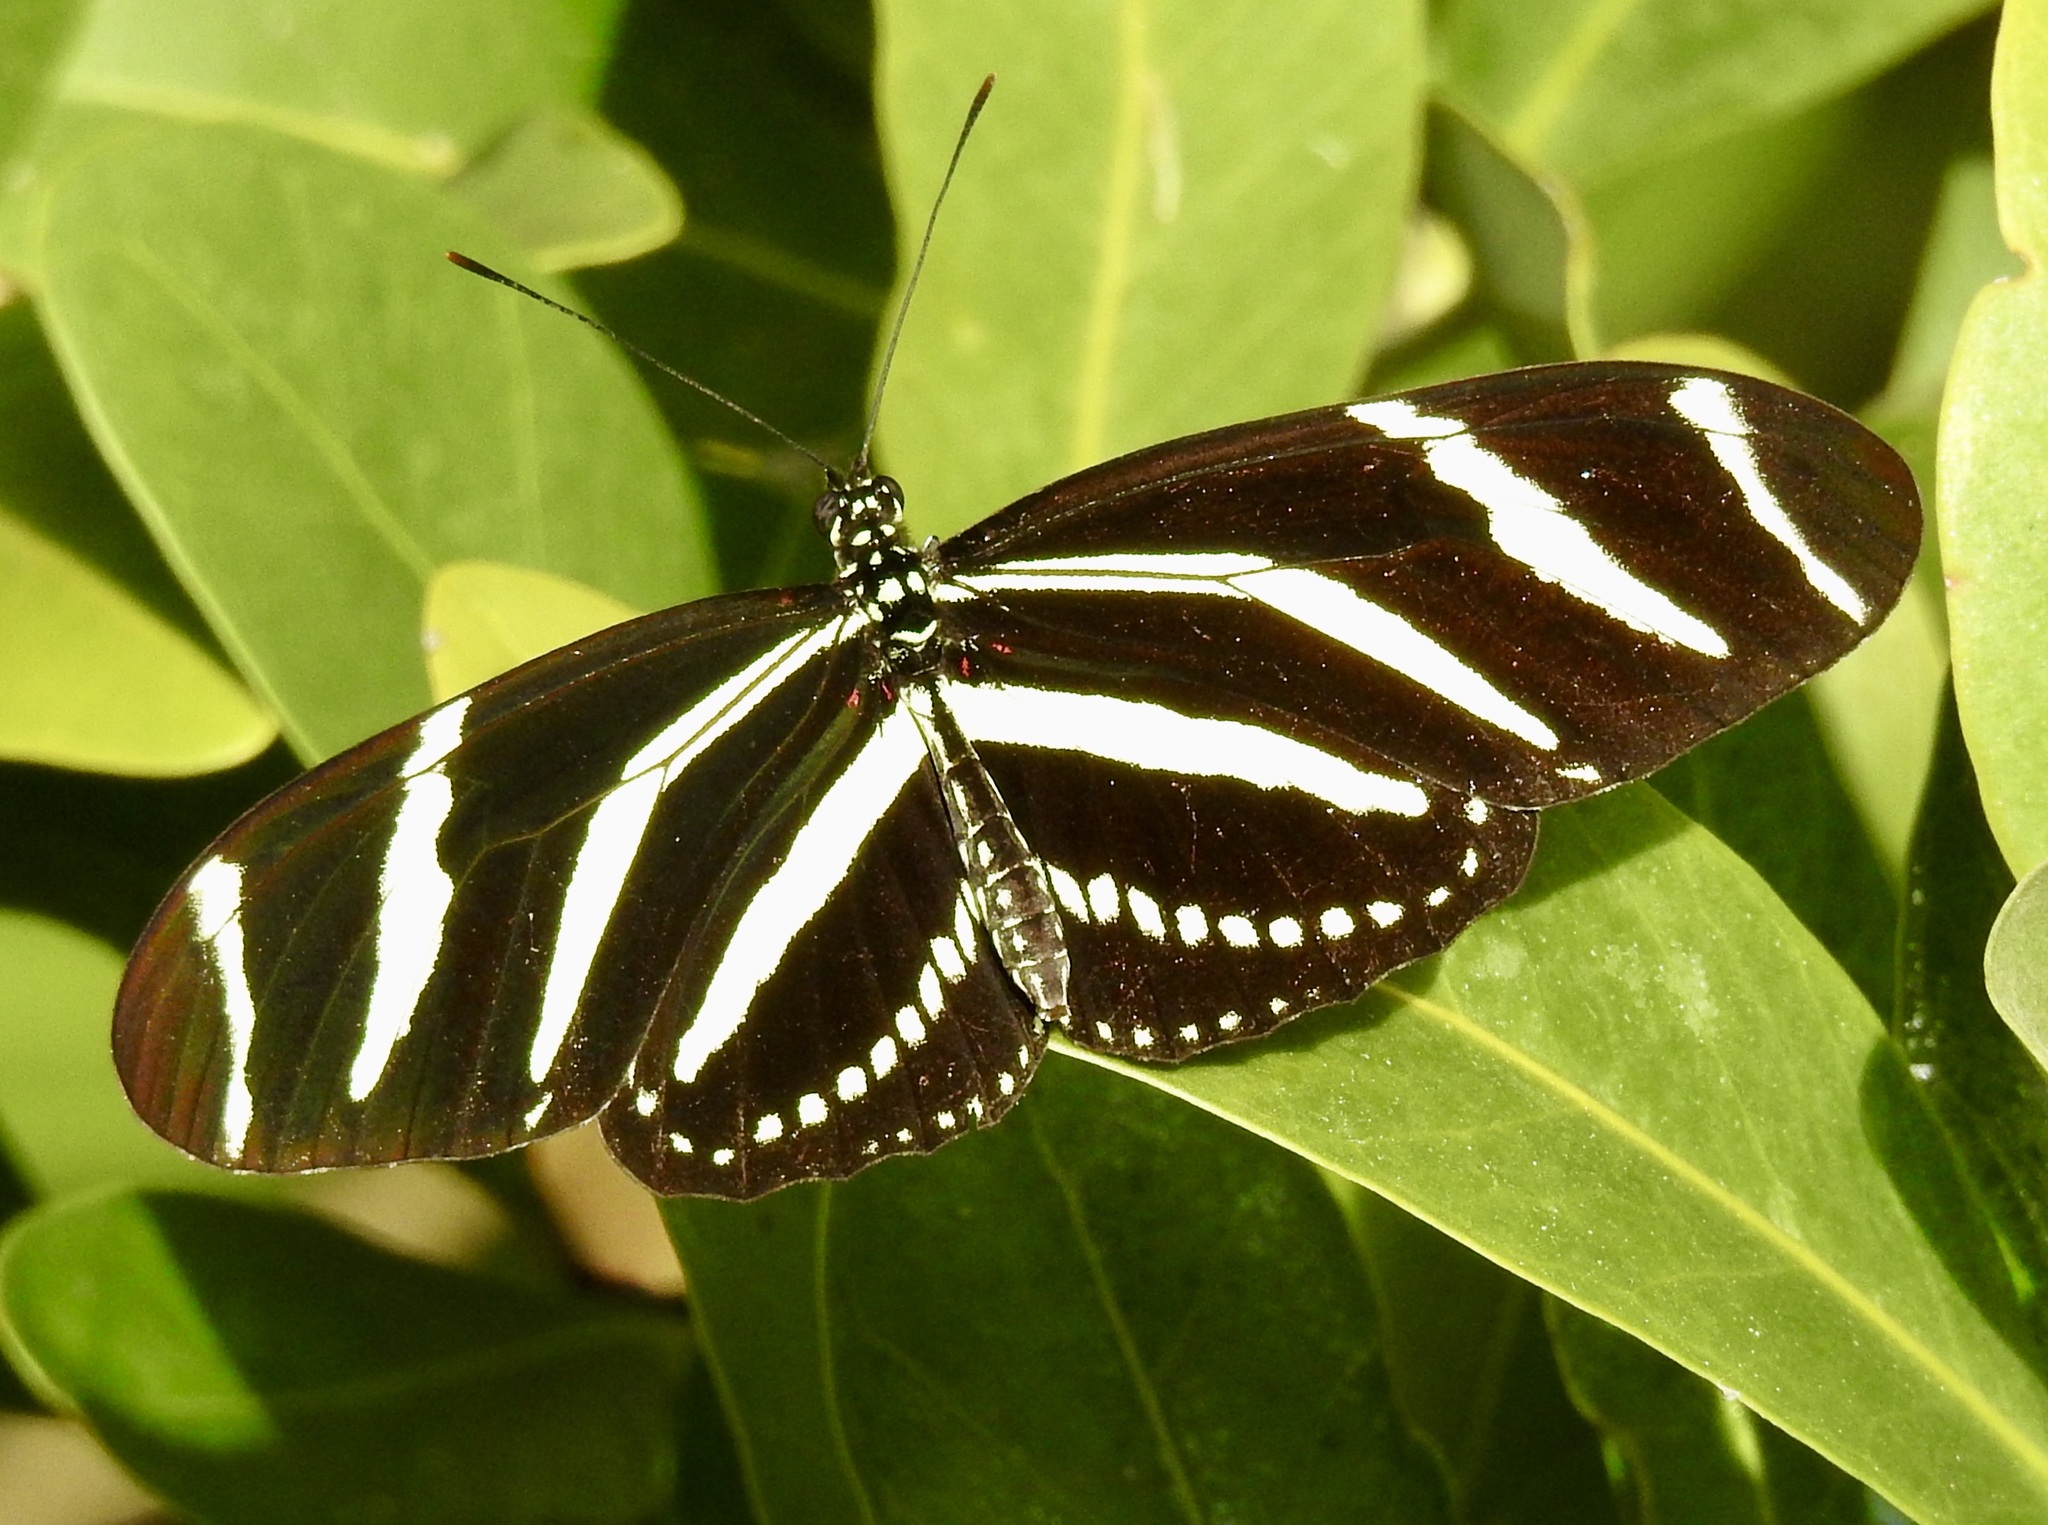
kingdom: Animalia
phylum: Arthropoda
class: Insecta
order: Lepidoptera
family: Nymphalidae
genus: Heliconius
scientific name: Heliconius charithonia
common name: Zebra long wing
